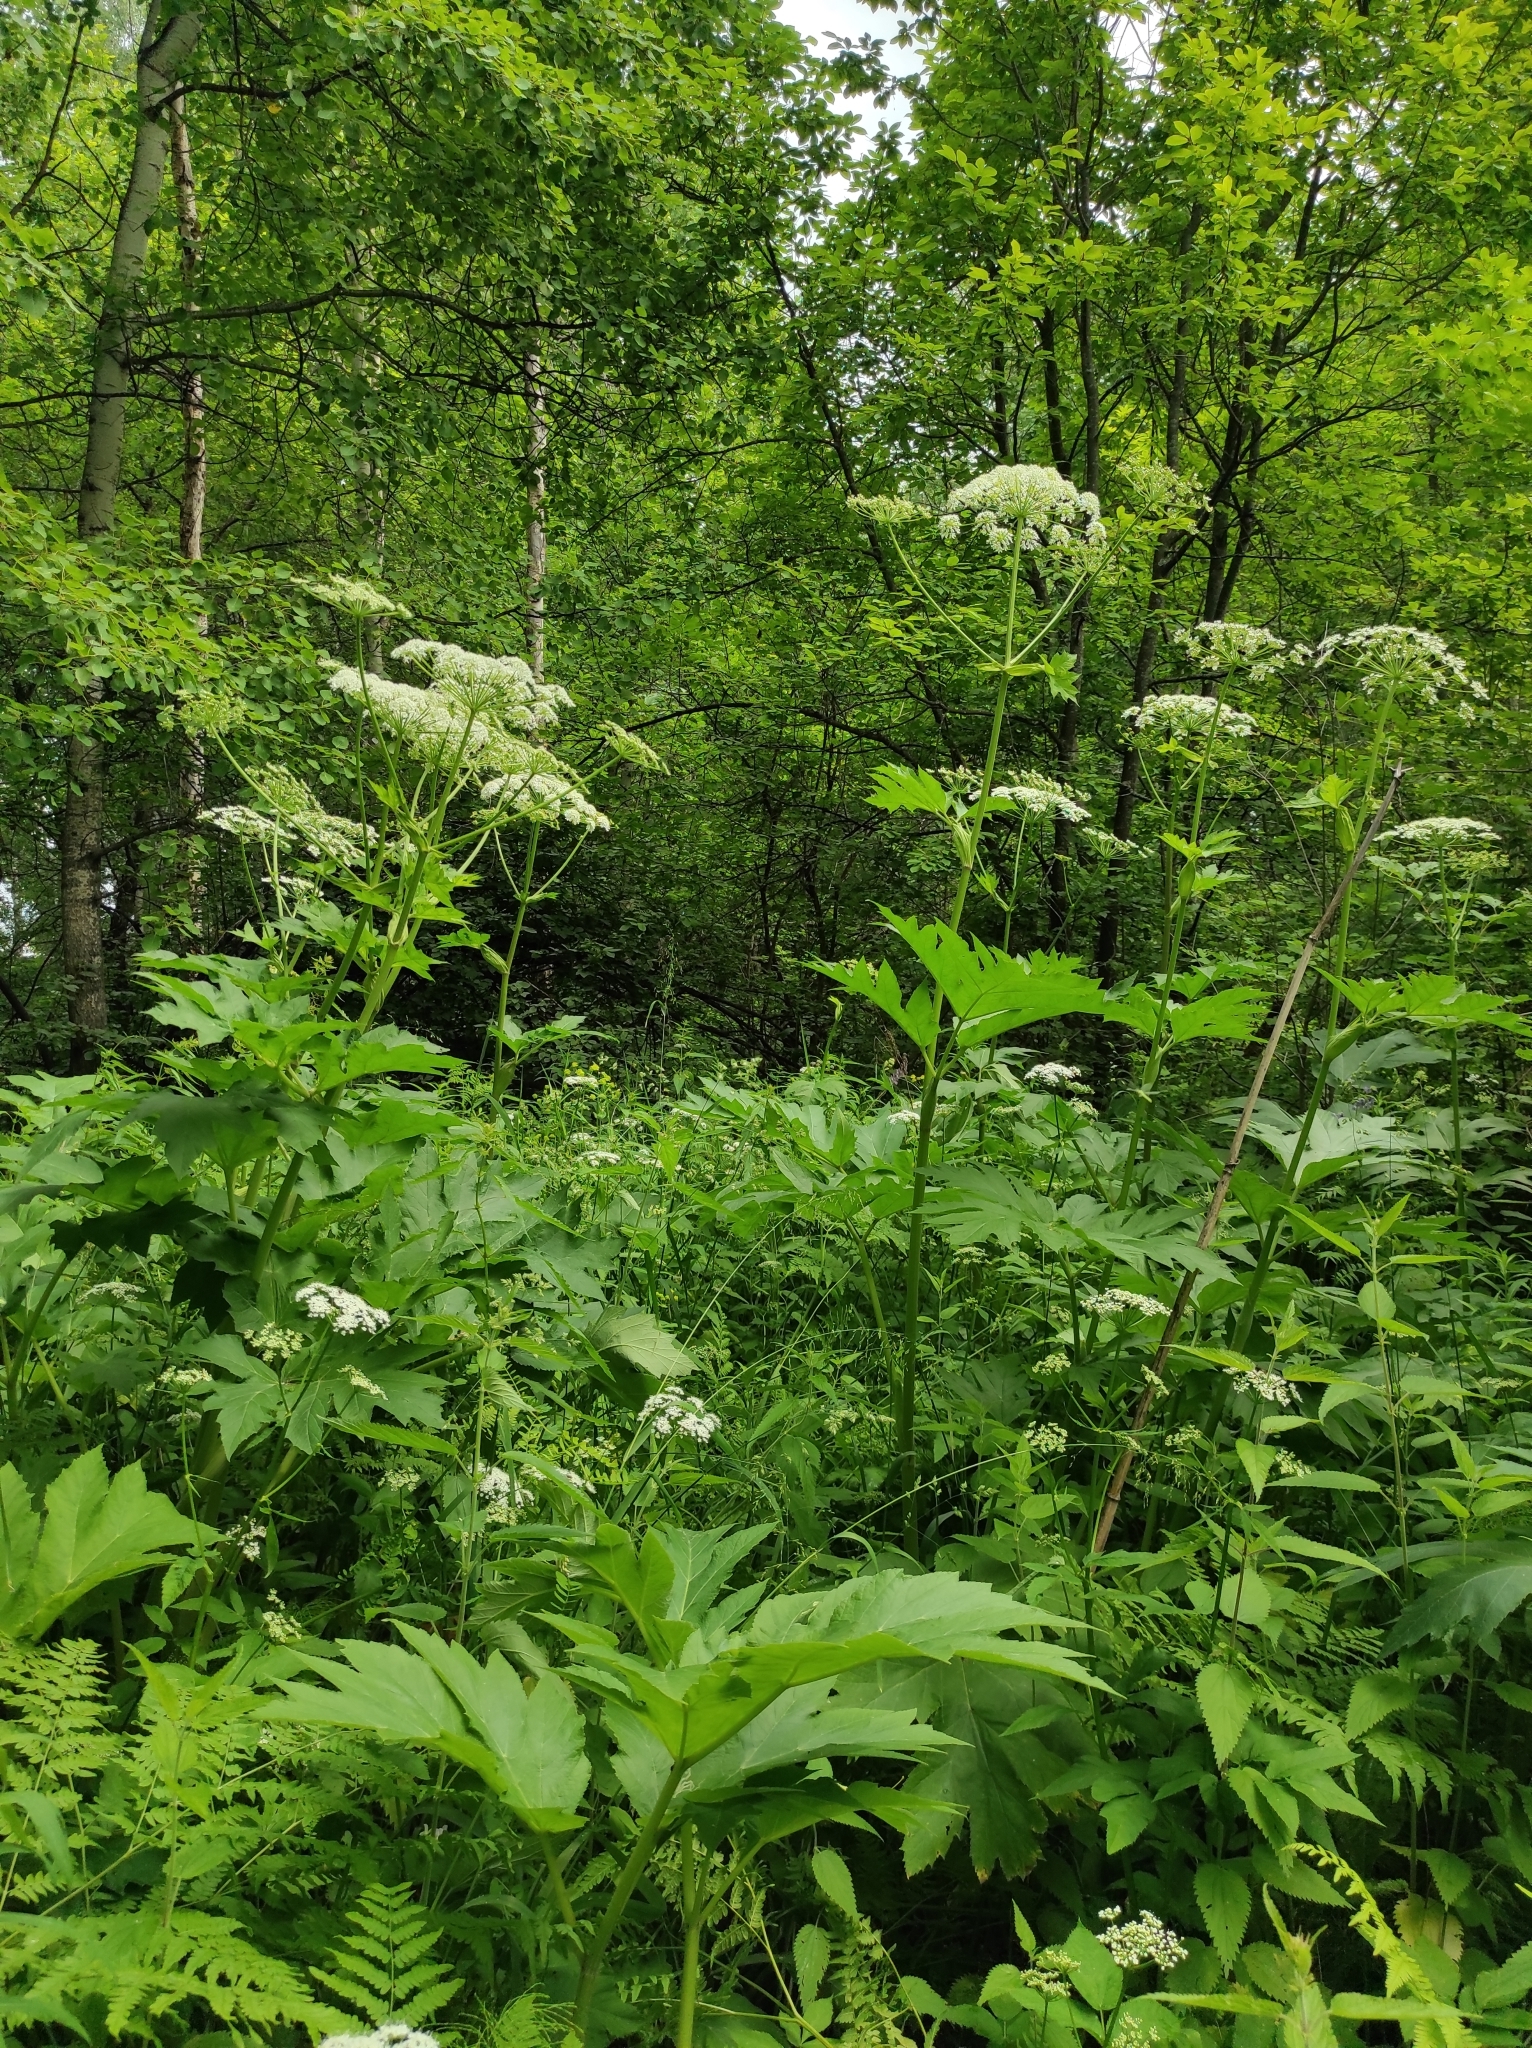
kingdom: Plantae
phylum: Tracheophyta
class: Magnoliopsida
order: Apiales
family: Apiaceae
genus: Heracleum
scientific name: Heracleum dissectum
